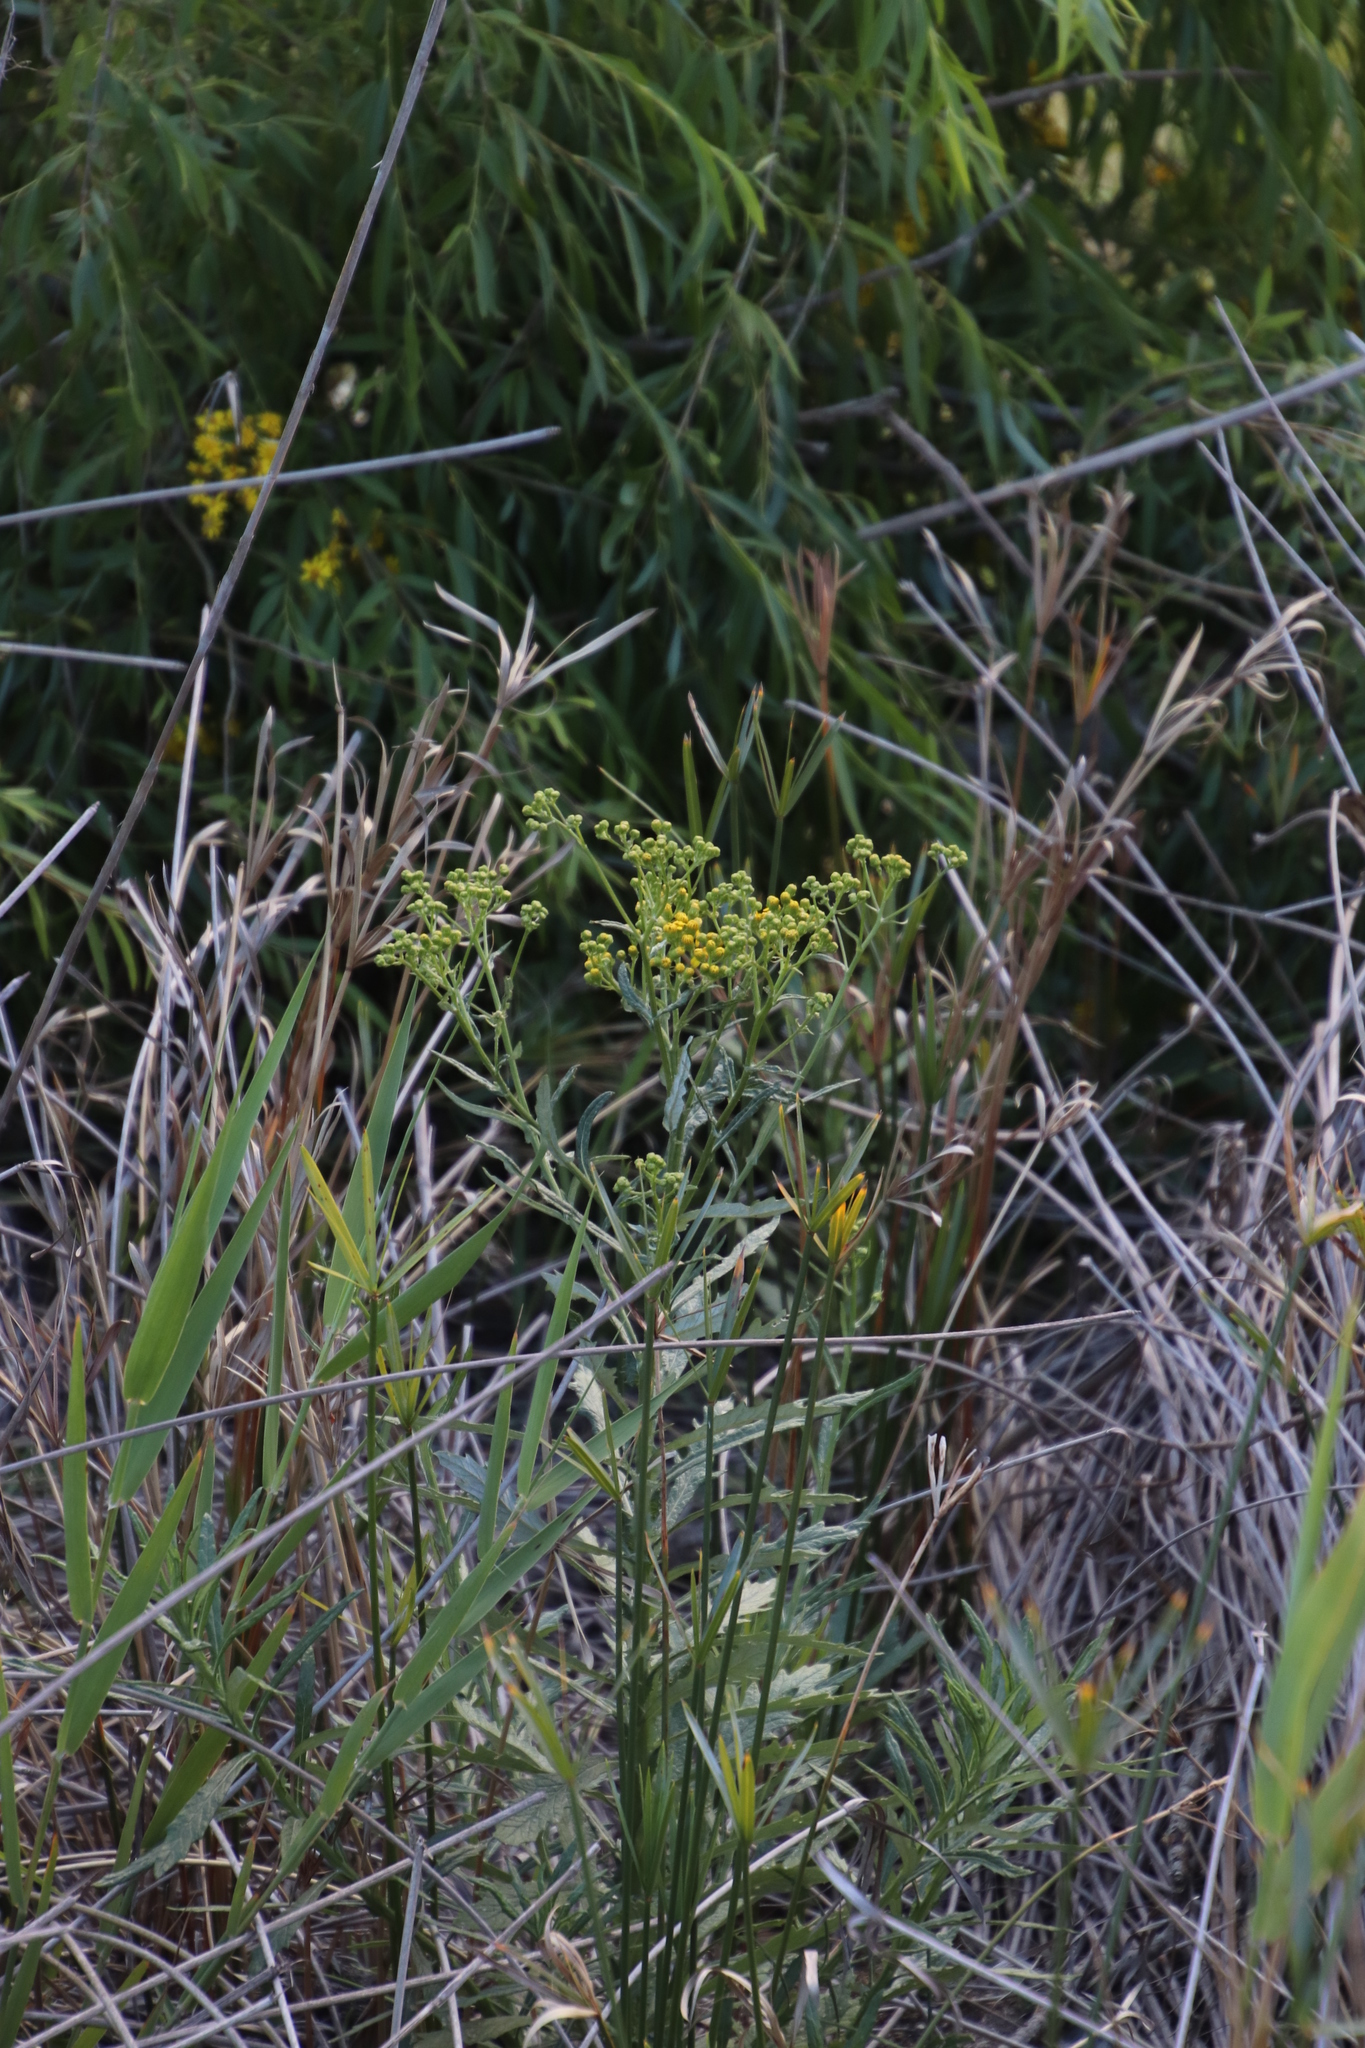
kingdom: Plantae
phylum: Tracheophyta
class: Magnoliopsida
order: Asterales
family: Asteraceae
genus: Senecio
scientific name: Senecio pterophorus
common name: Shoddy ragwort
